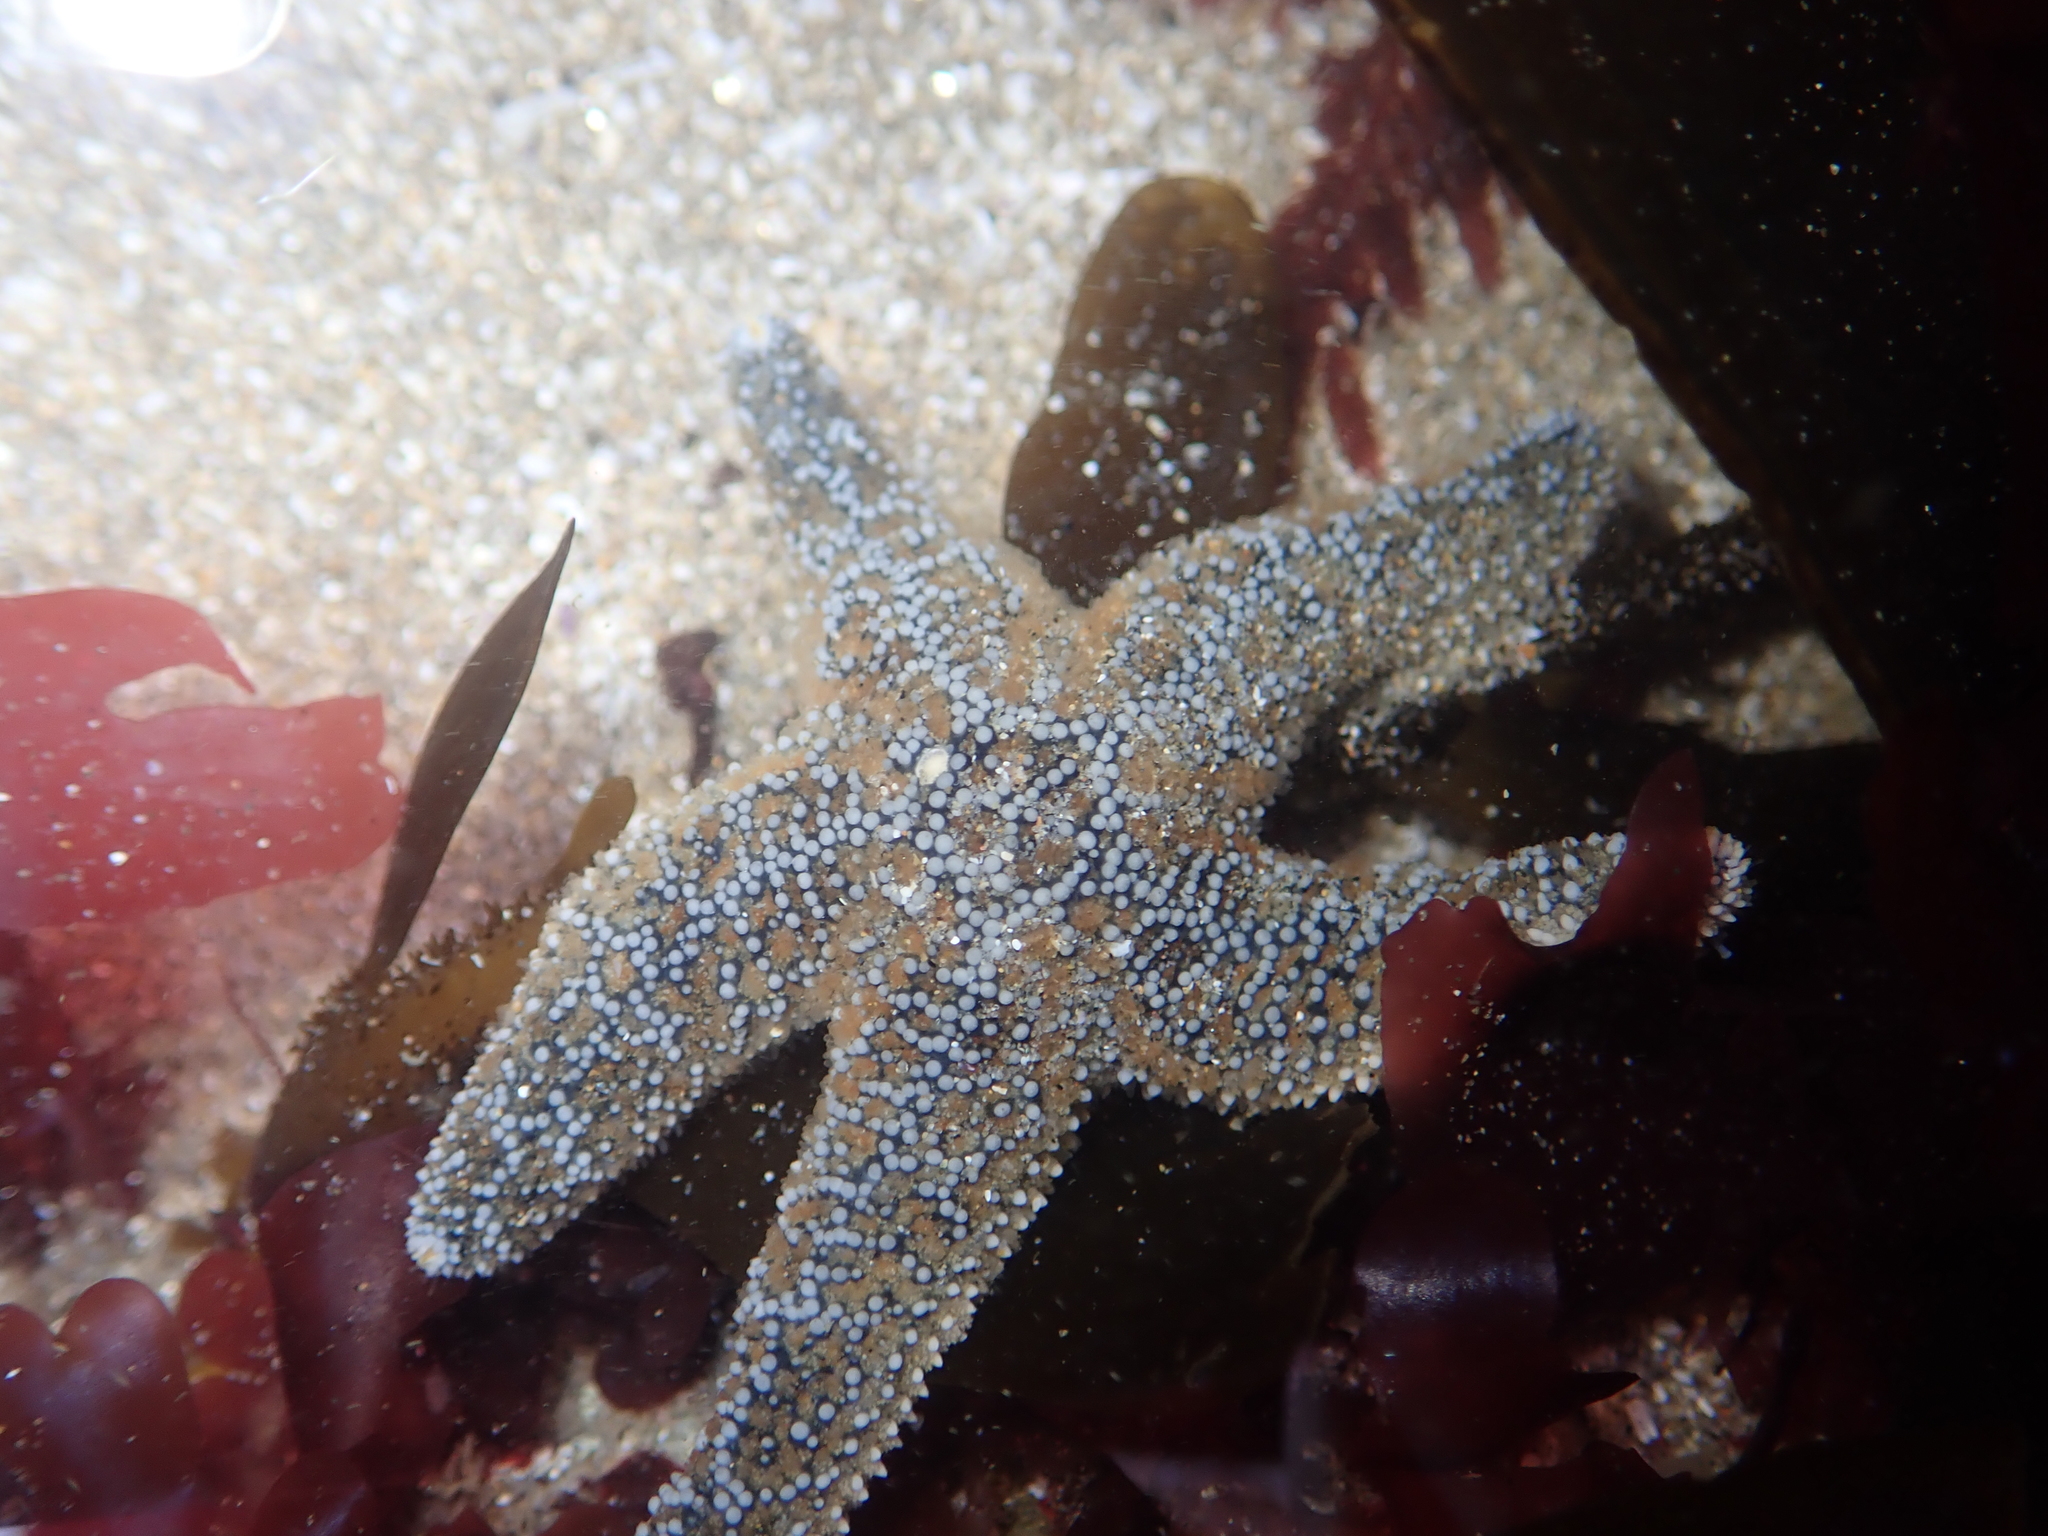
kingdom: Animalia
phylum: Echinodermata
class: Asteroidea
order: Forcipulatida
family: Asteriidae
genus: Pisaster
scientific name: Pisaster ochraceus
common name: Ochre stars
